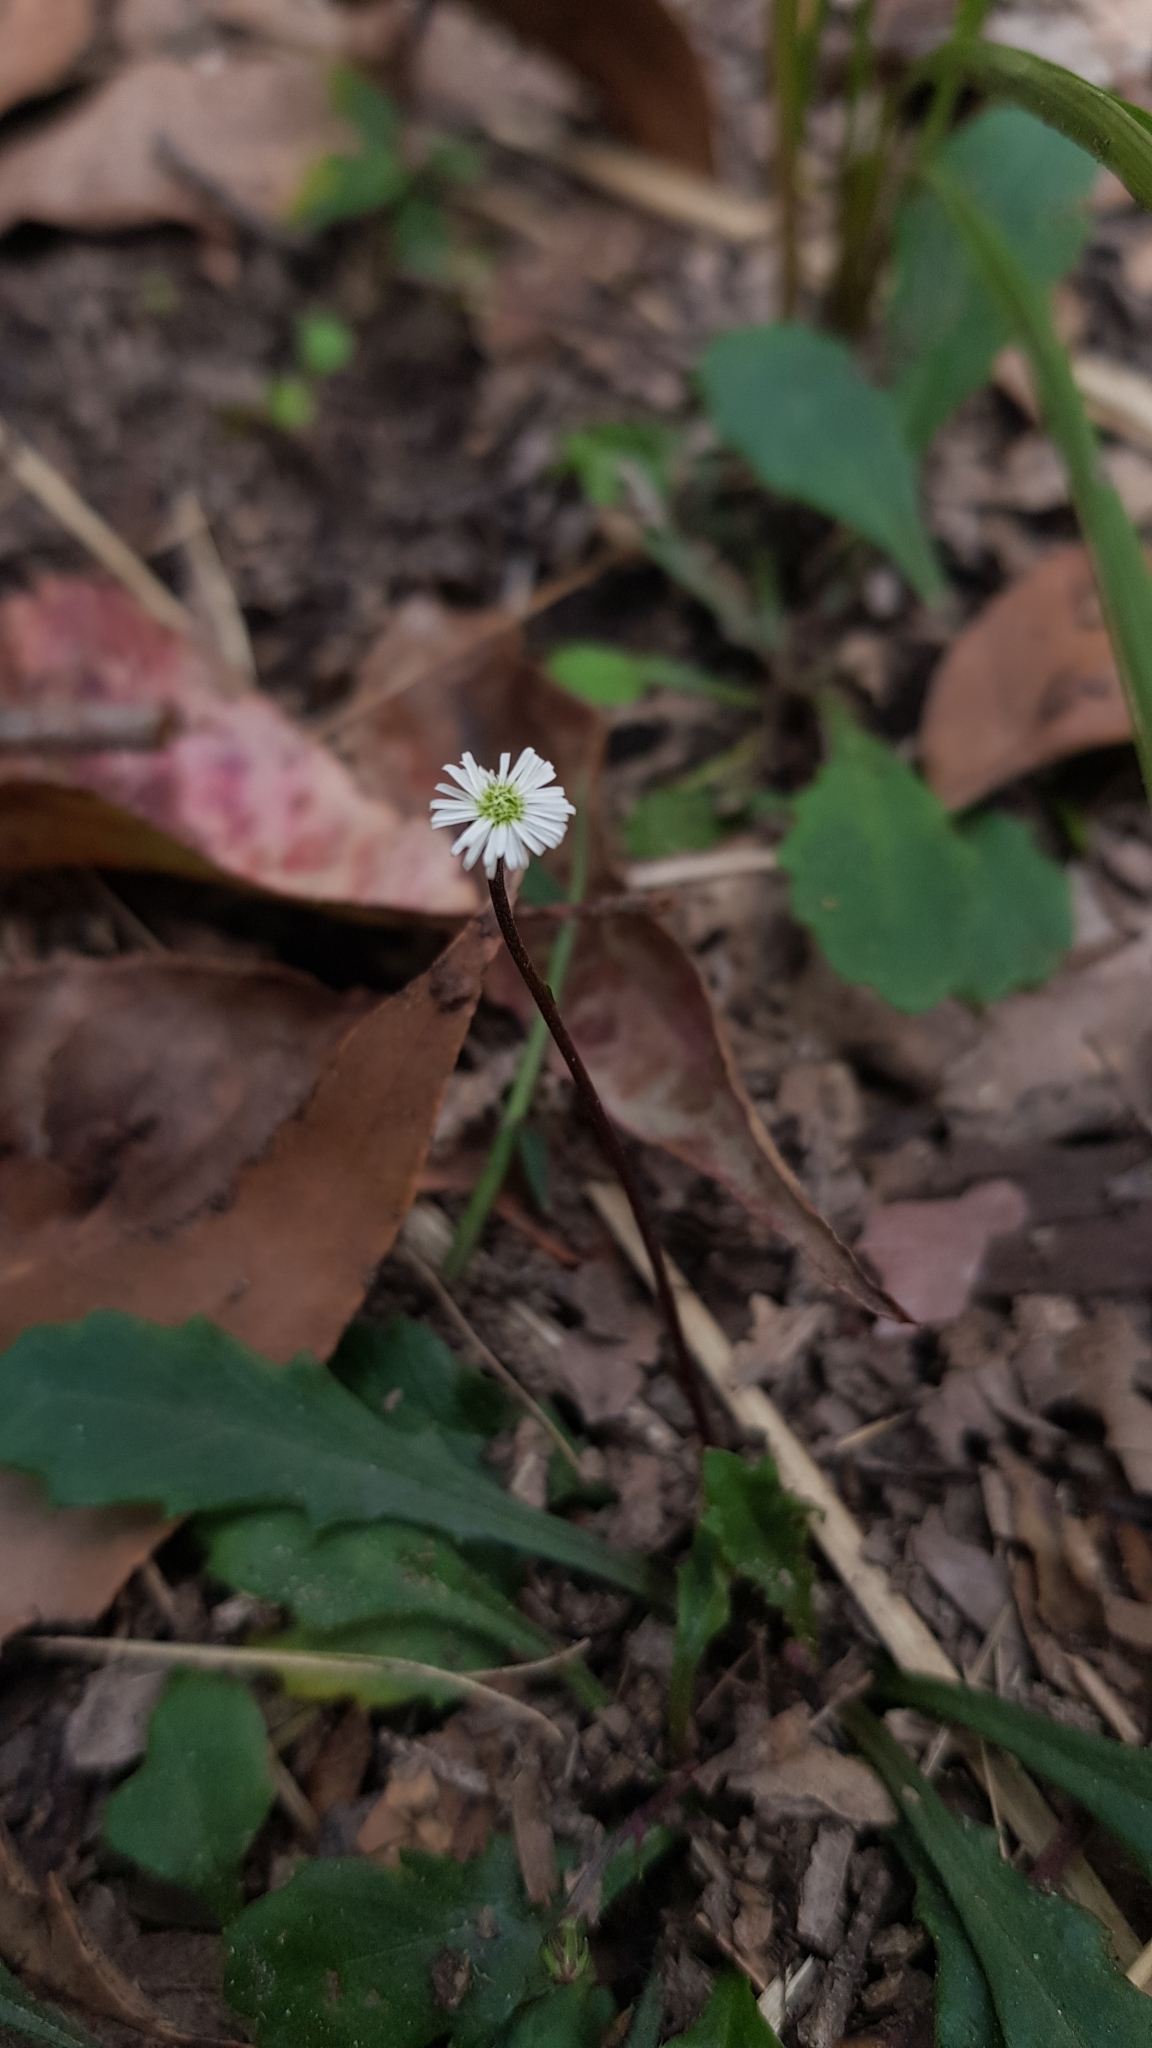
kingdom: Plantae
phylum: Tracheophyta
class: Magnoliopsida
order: Asterales
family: Asteraceae
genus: Lagenophora
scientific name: Lagenophora sublyrata ter
